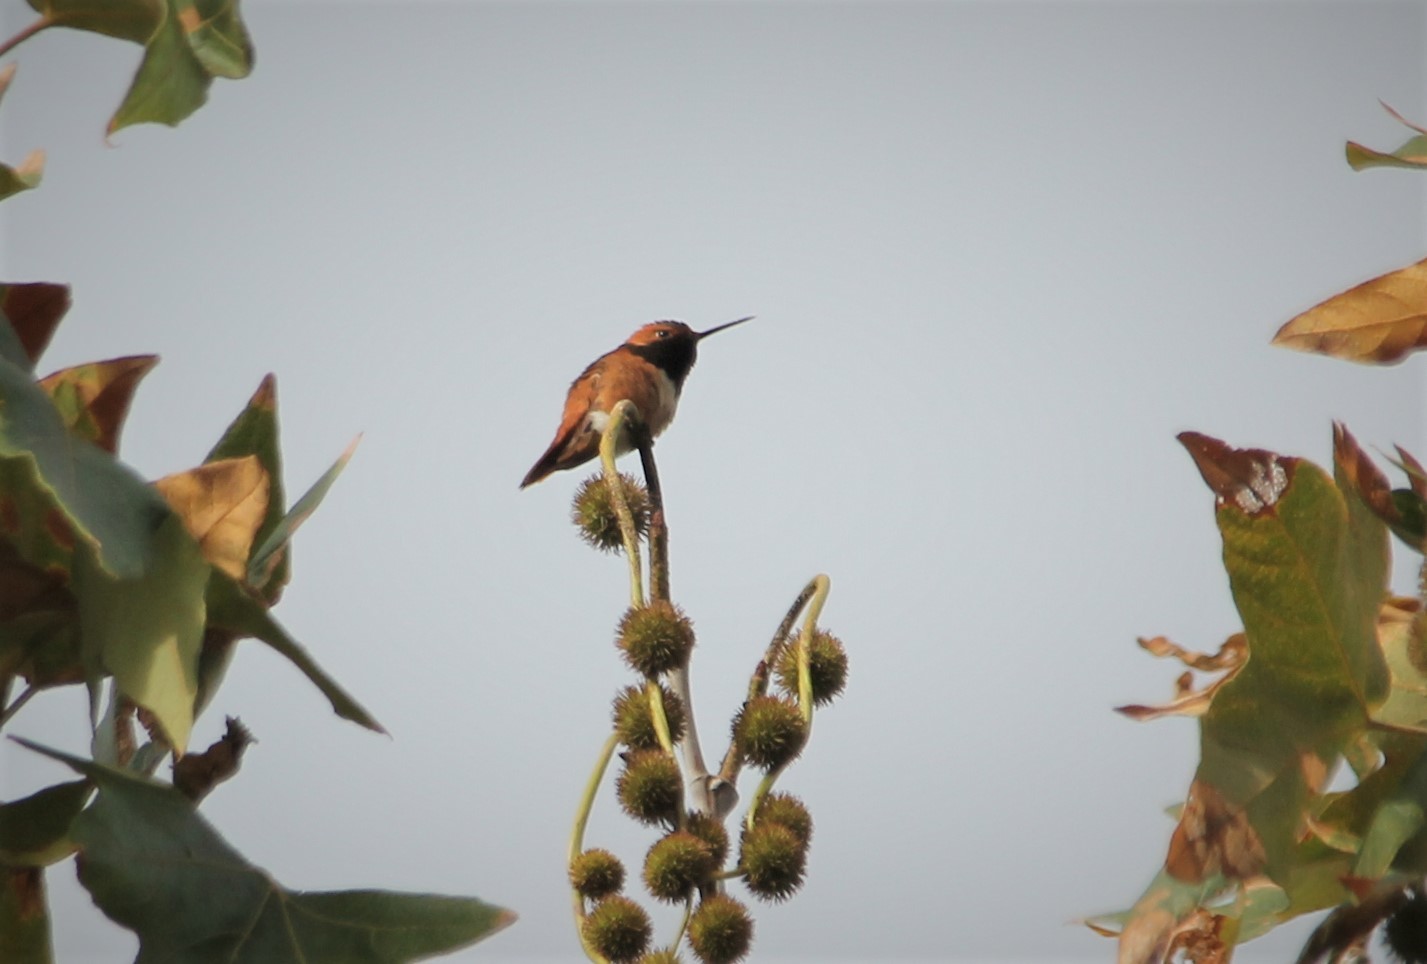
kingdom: Animalia
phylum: Chordata
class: Aves
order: Apodiformes
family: Trochilidae
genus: Selasphorus
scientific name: Selasphorus sasin
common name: Allen's hummingbird
